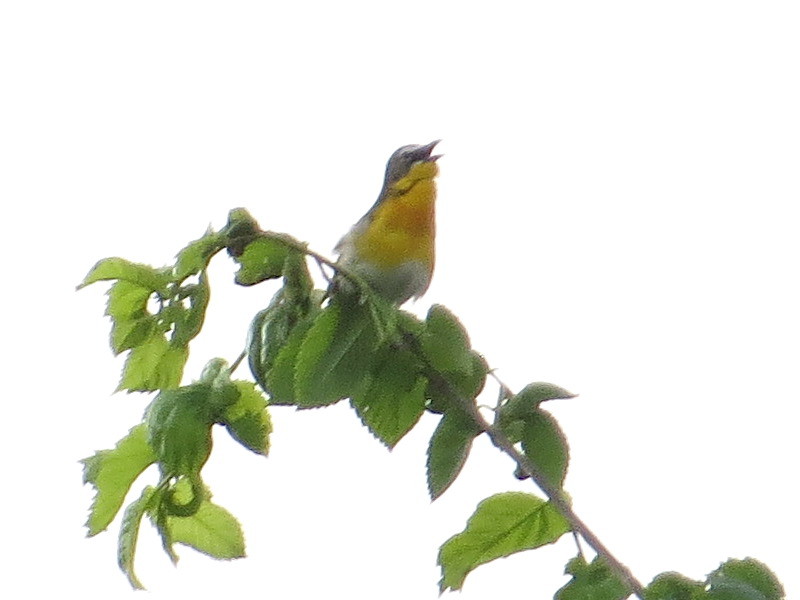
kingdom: Animalia
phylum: Chordata
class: Aves
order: Passeriformes
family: Parulidae
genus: Icteria
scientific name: Icteria virens
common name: Yellow-breasted chat
